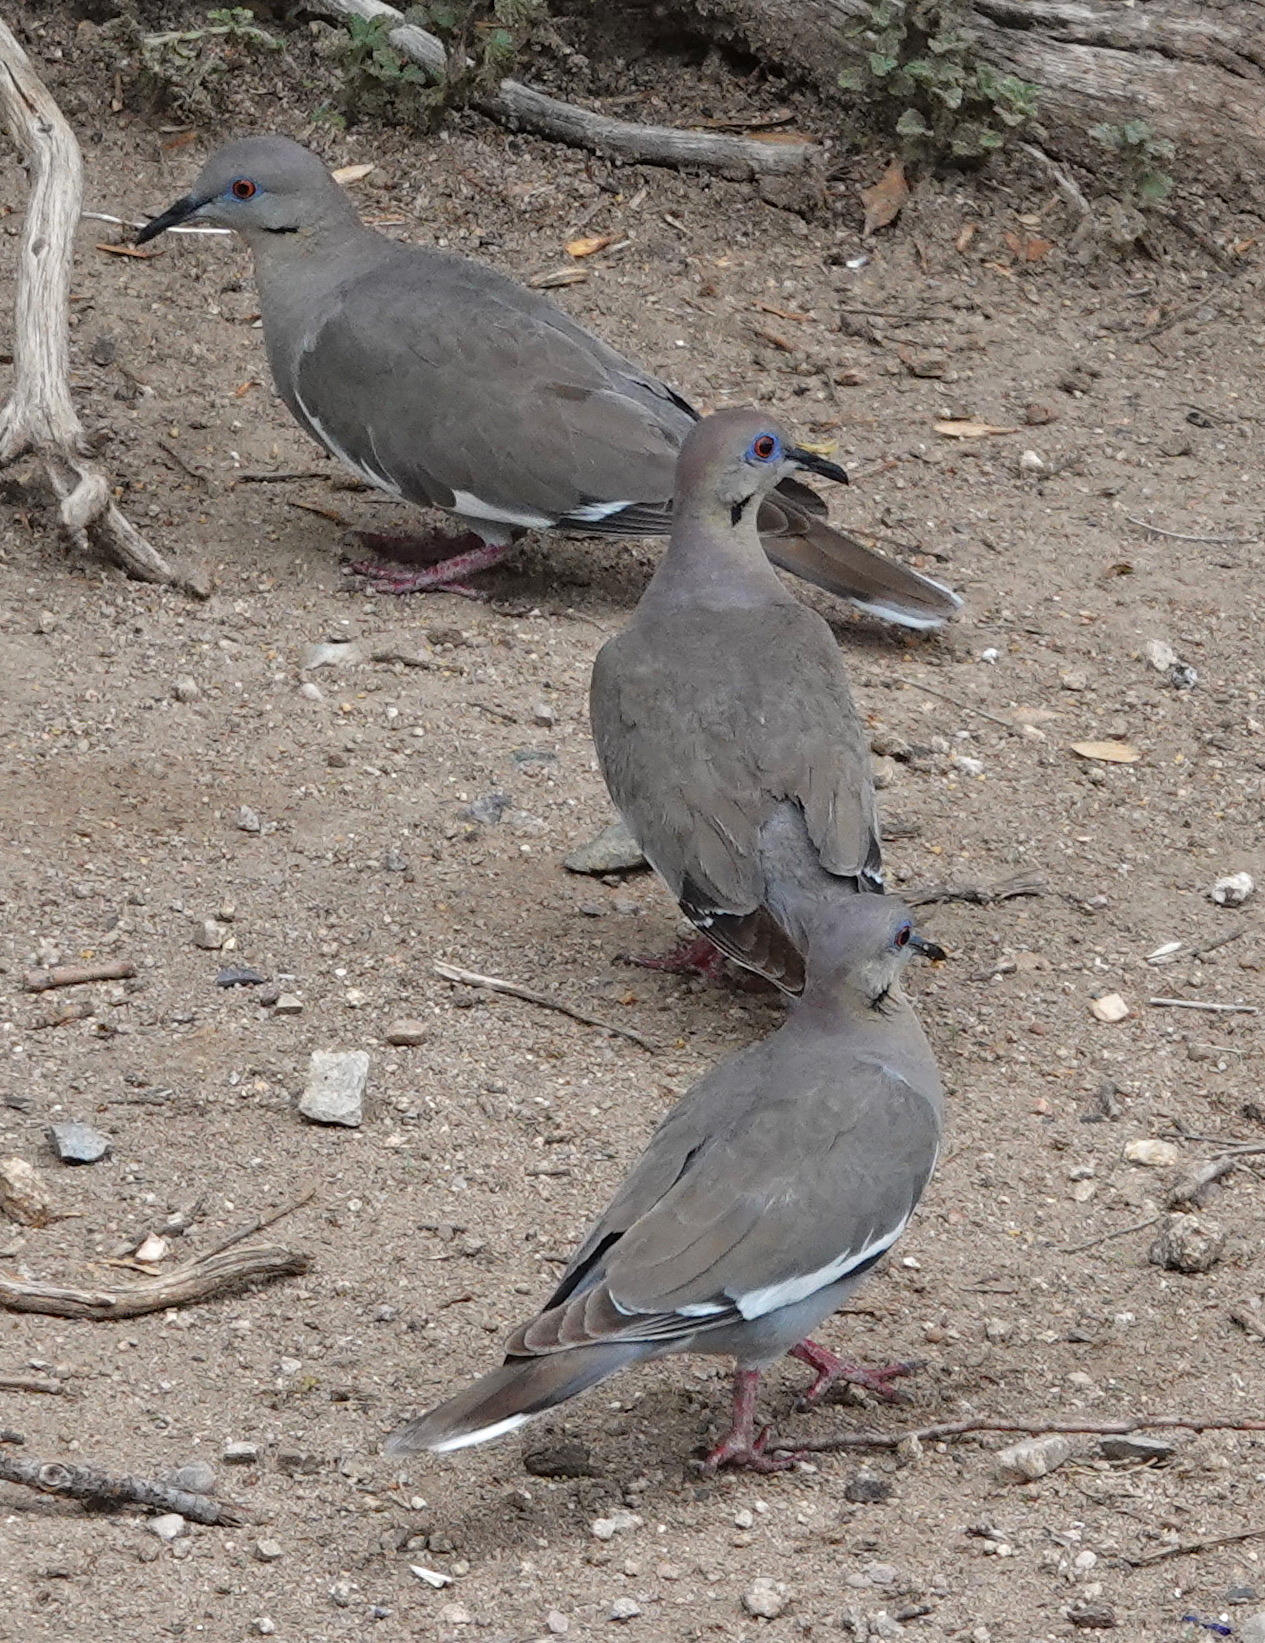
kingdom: Animalia
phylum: Chordata
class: Aves
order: Columbiformes
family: Columbidae
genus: Zenaida
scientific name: Zenaida asiatica
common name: White-winged dove
